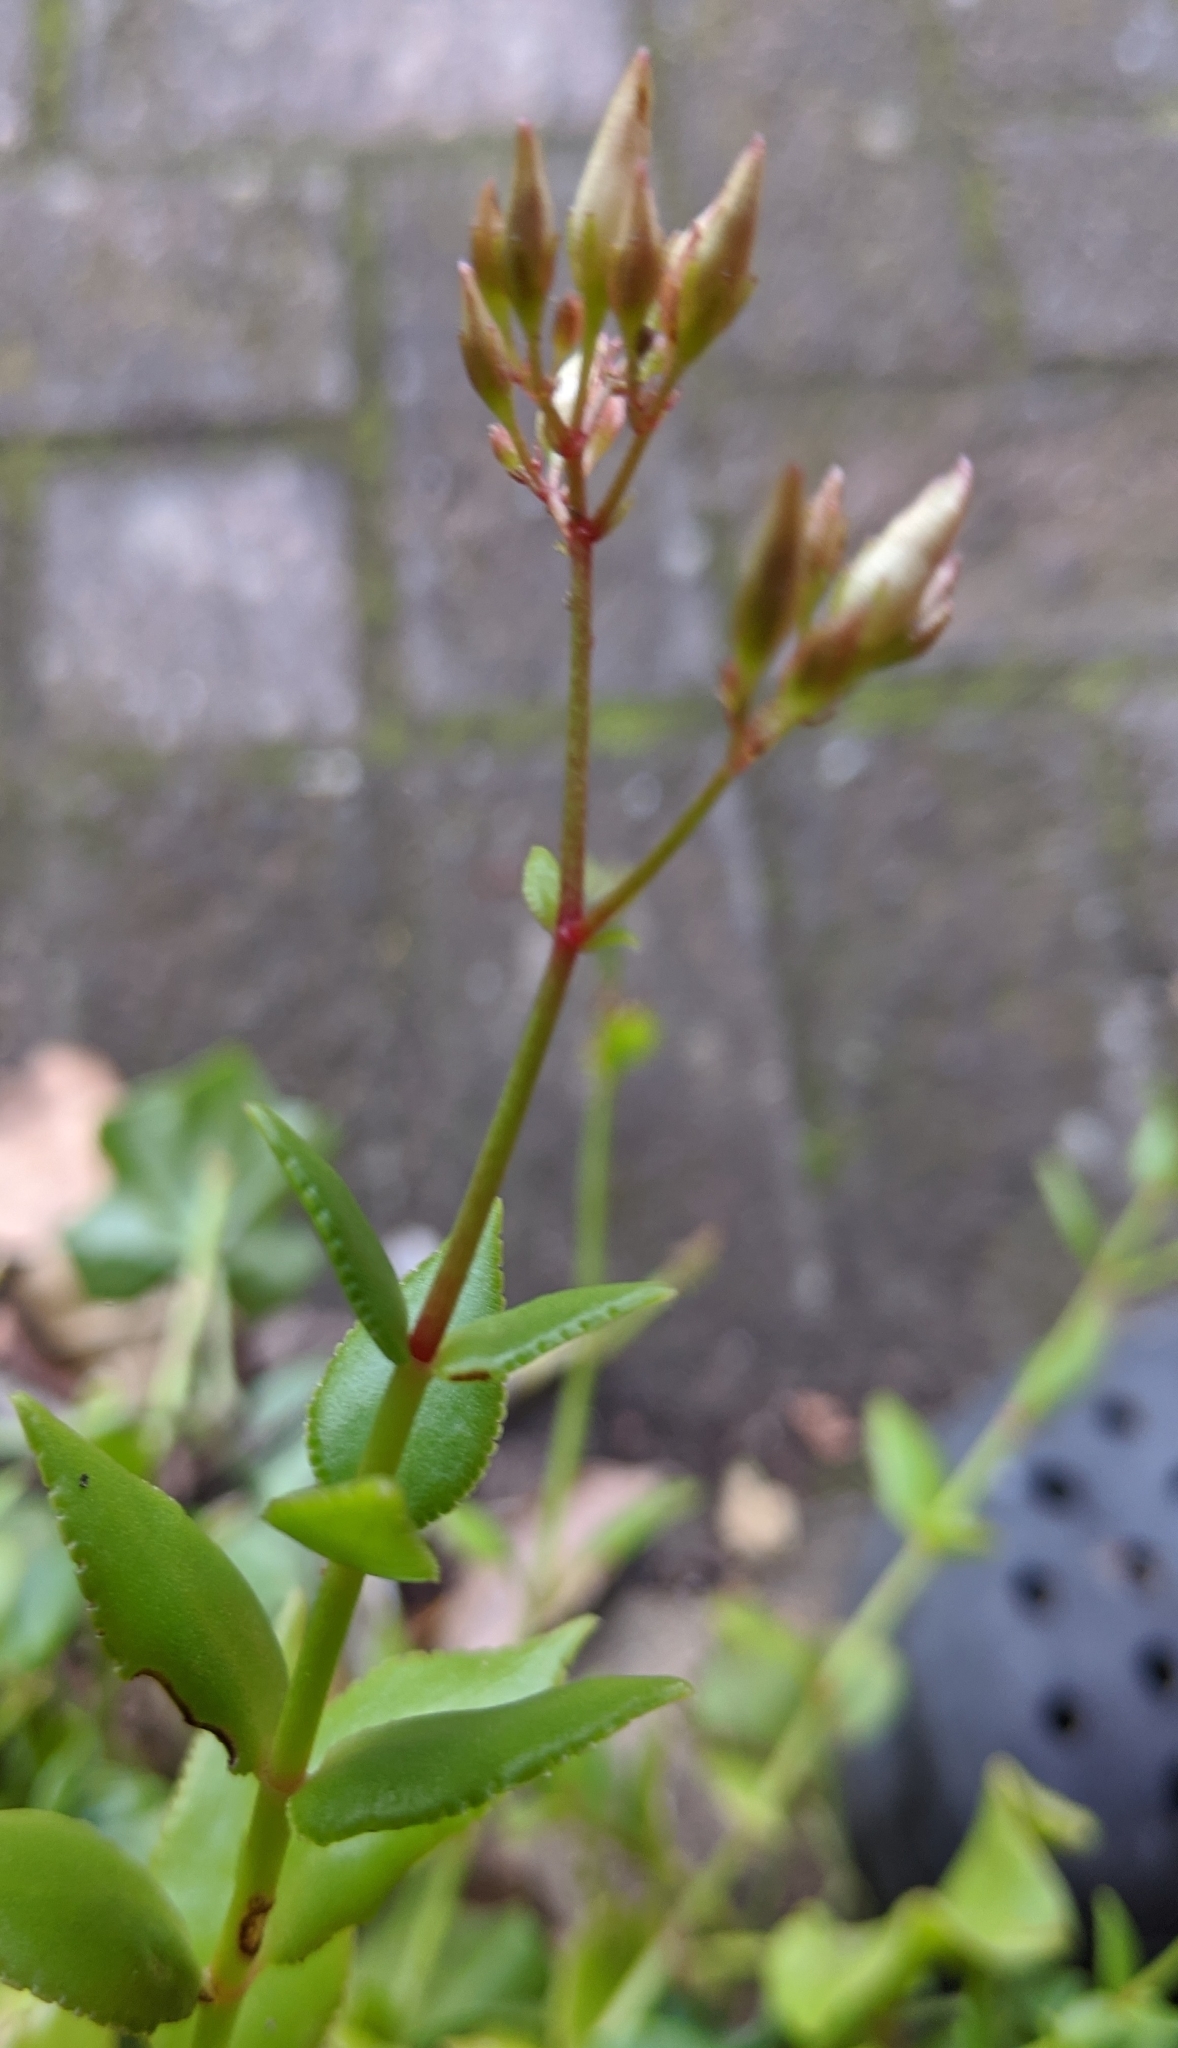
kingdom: Plantae
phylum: Tracheophyta
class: Magnoliopsida
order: Saxifragales
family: Crassulaceae
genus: Crassula
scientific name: Crassula sarmentosa
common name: Jade-tree
